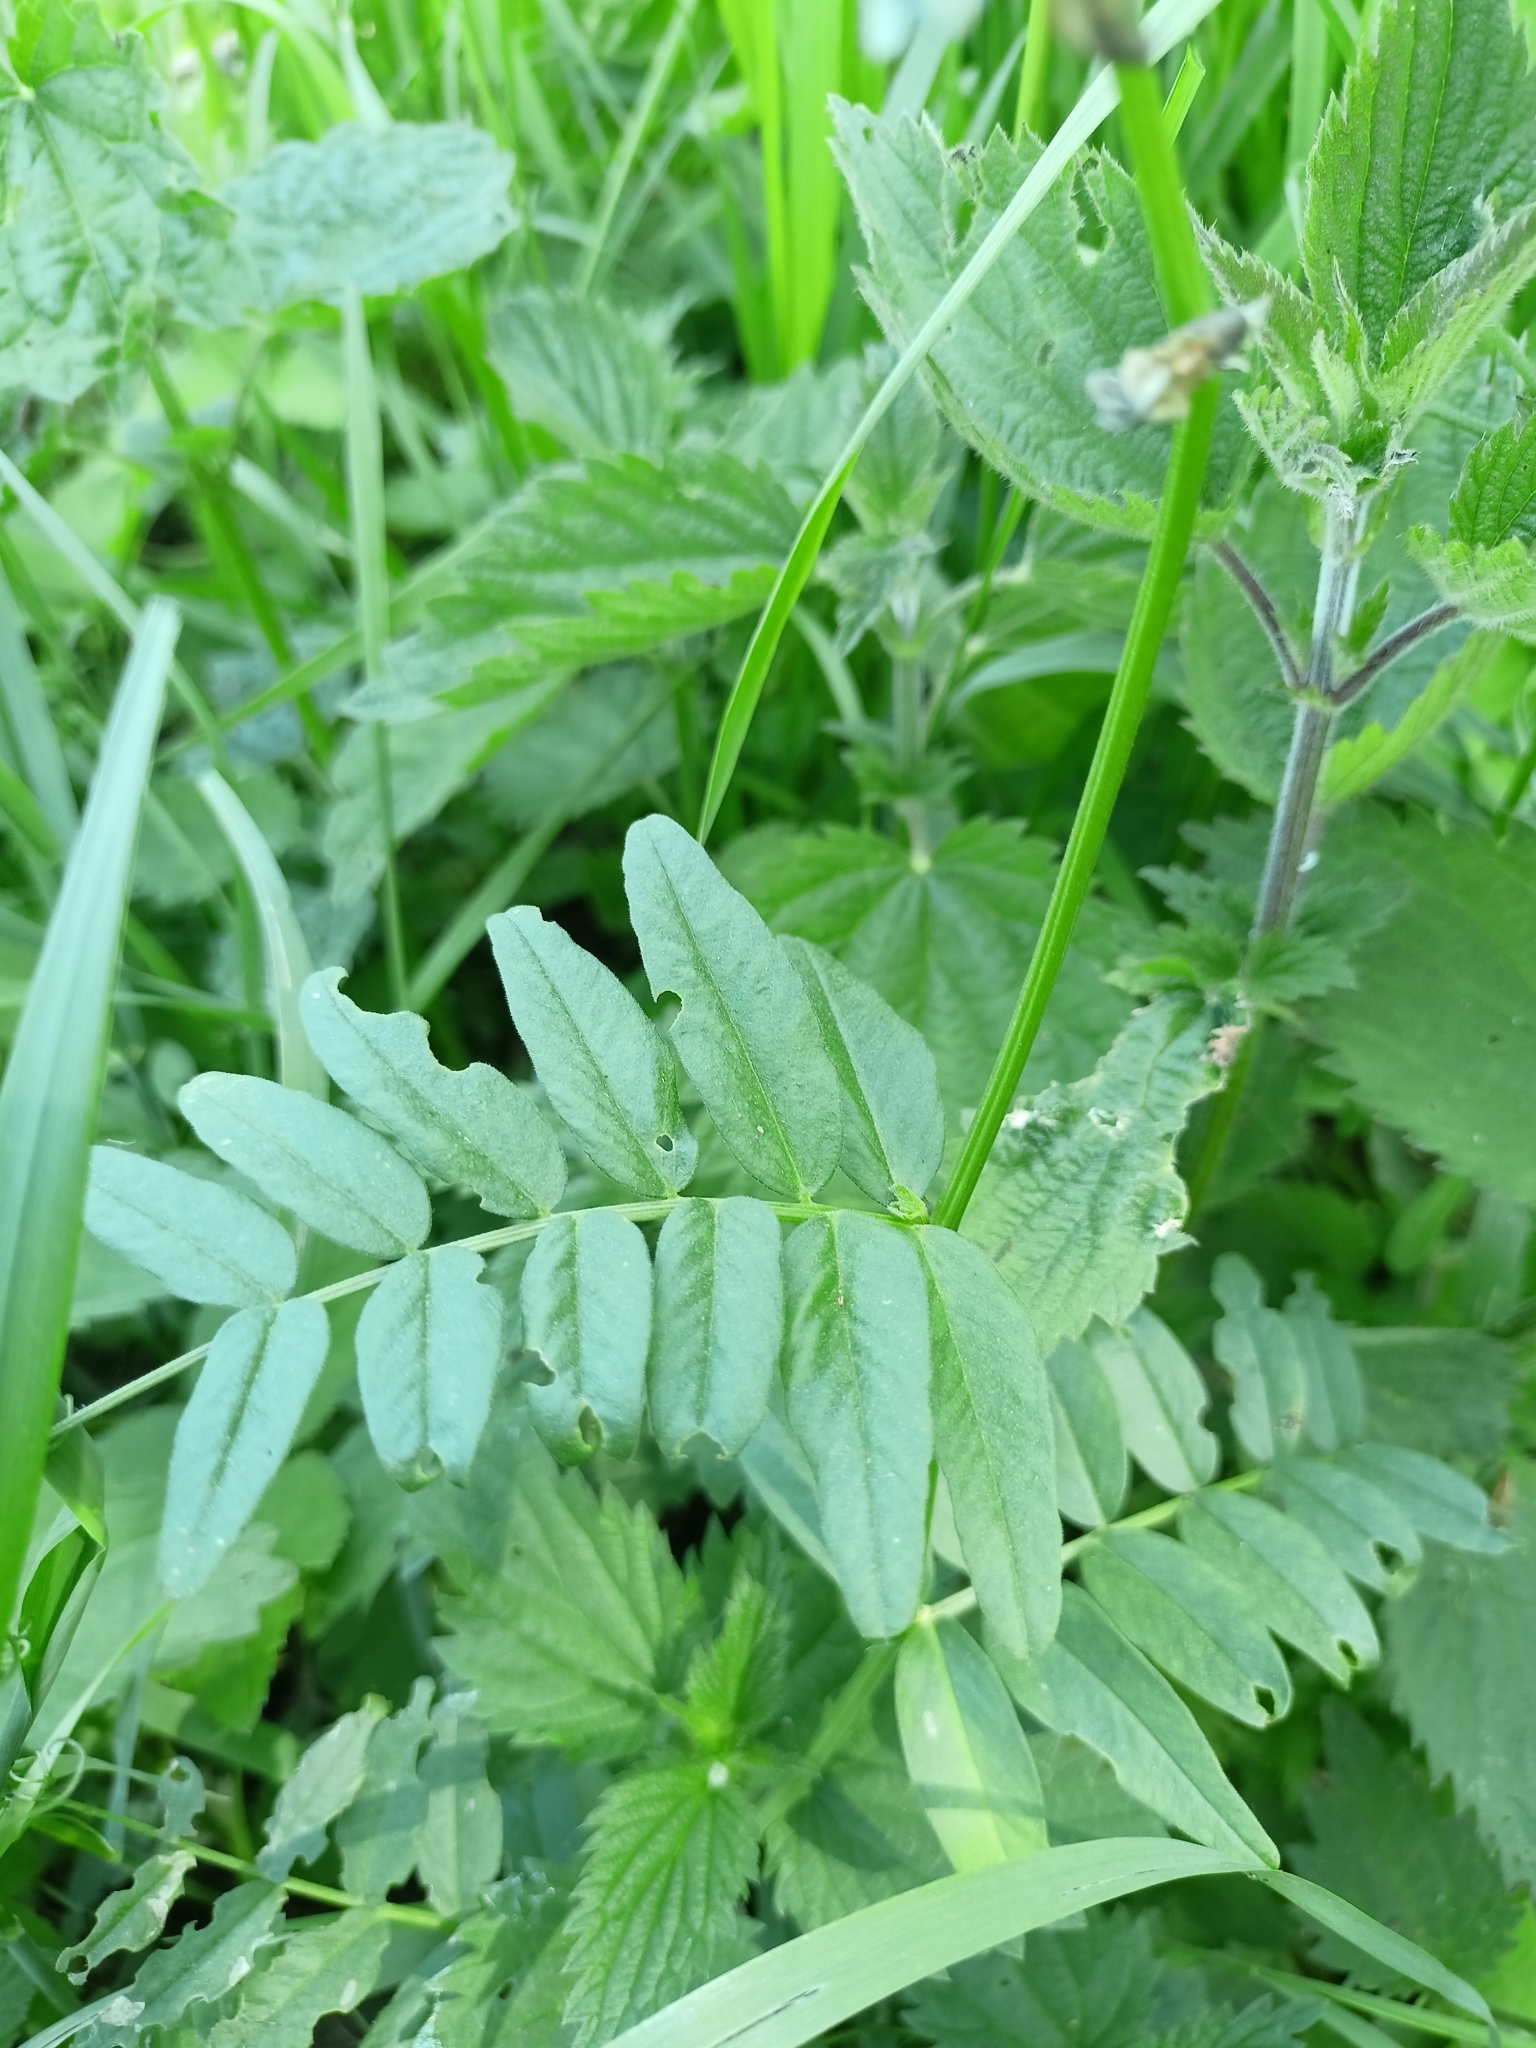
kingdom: Plantae
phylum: Tracheophyta
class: Magnoliopsida
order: Fabales
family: Fabaceae
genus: Vicia
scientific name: Vicia sepium
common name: Bush vetch
